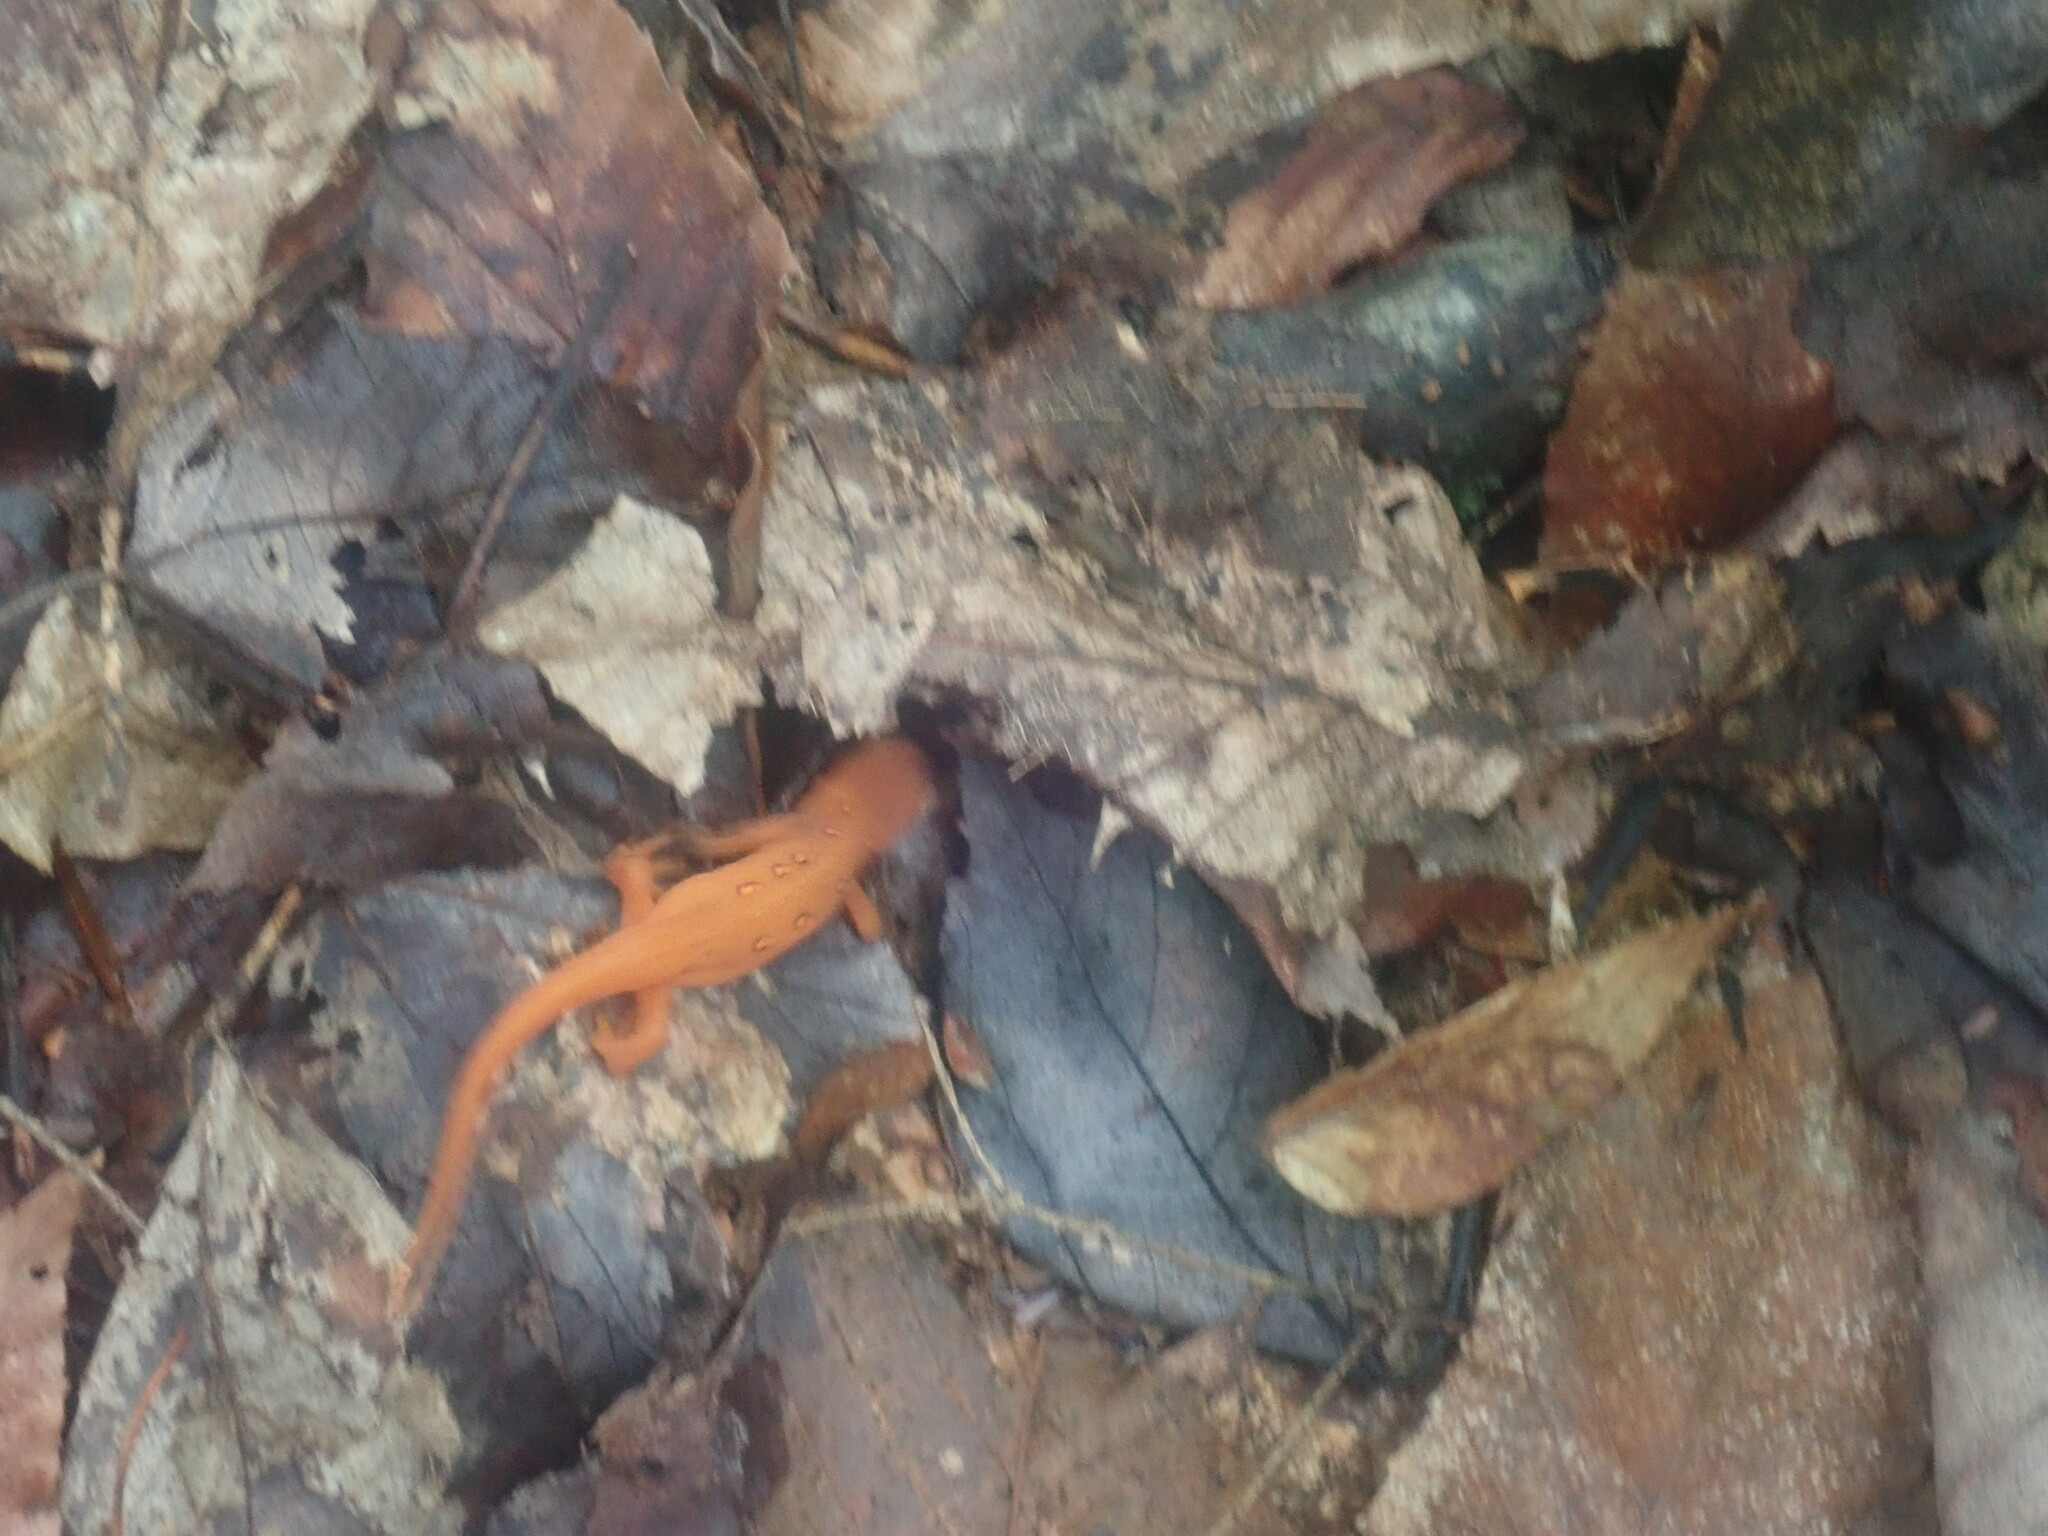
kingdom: Animalia
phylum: Chordata
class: Amphibia
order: Caudata
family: Salamandridae
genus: Notophthalmus
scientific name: Notophthalmus viridescens
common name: Eastern newt
